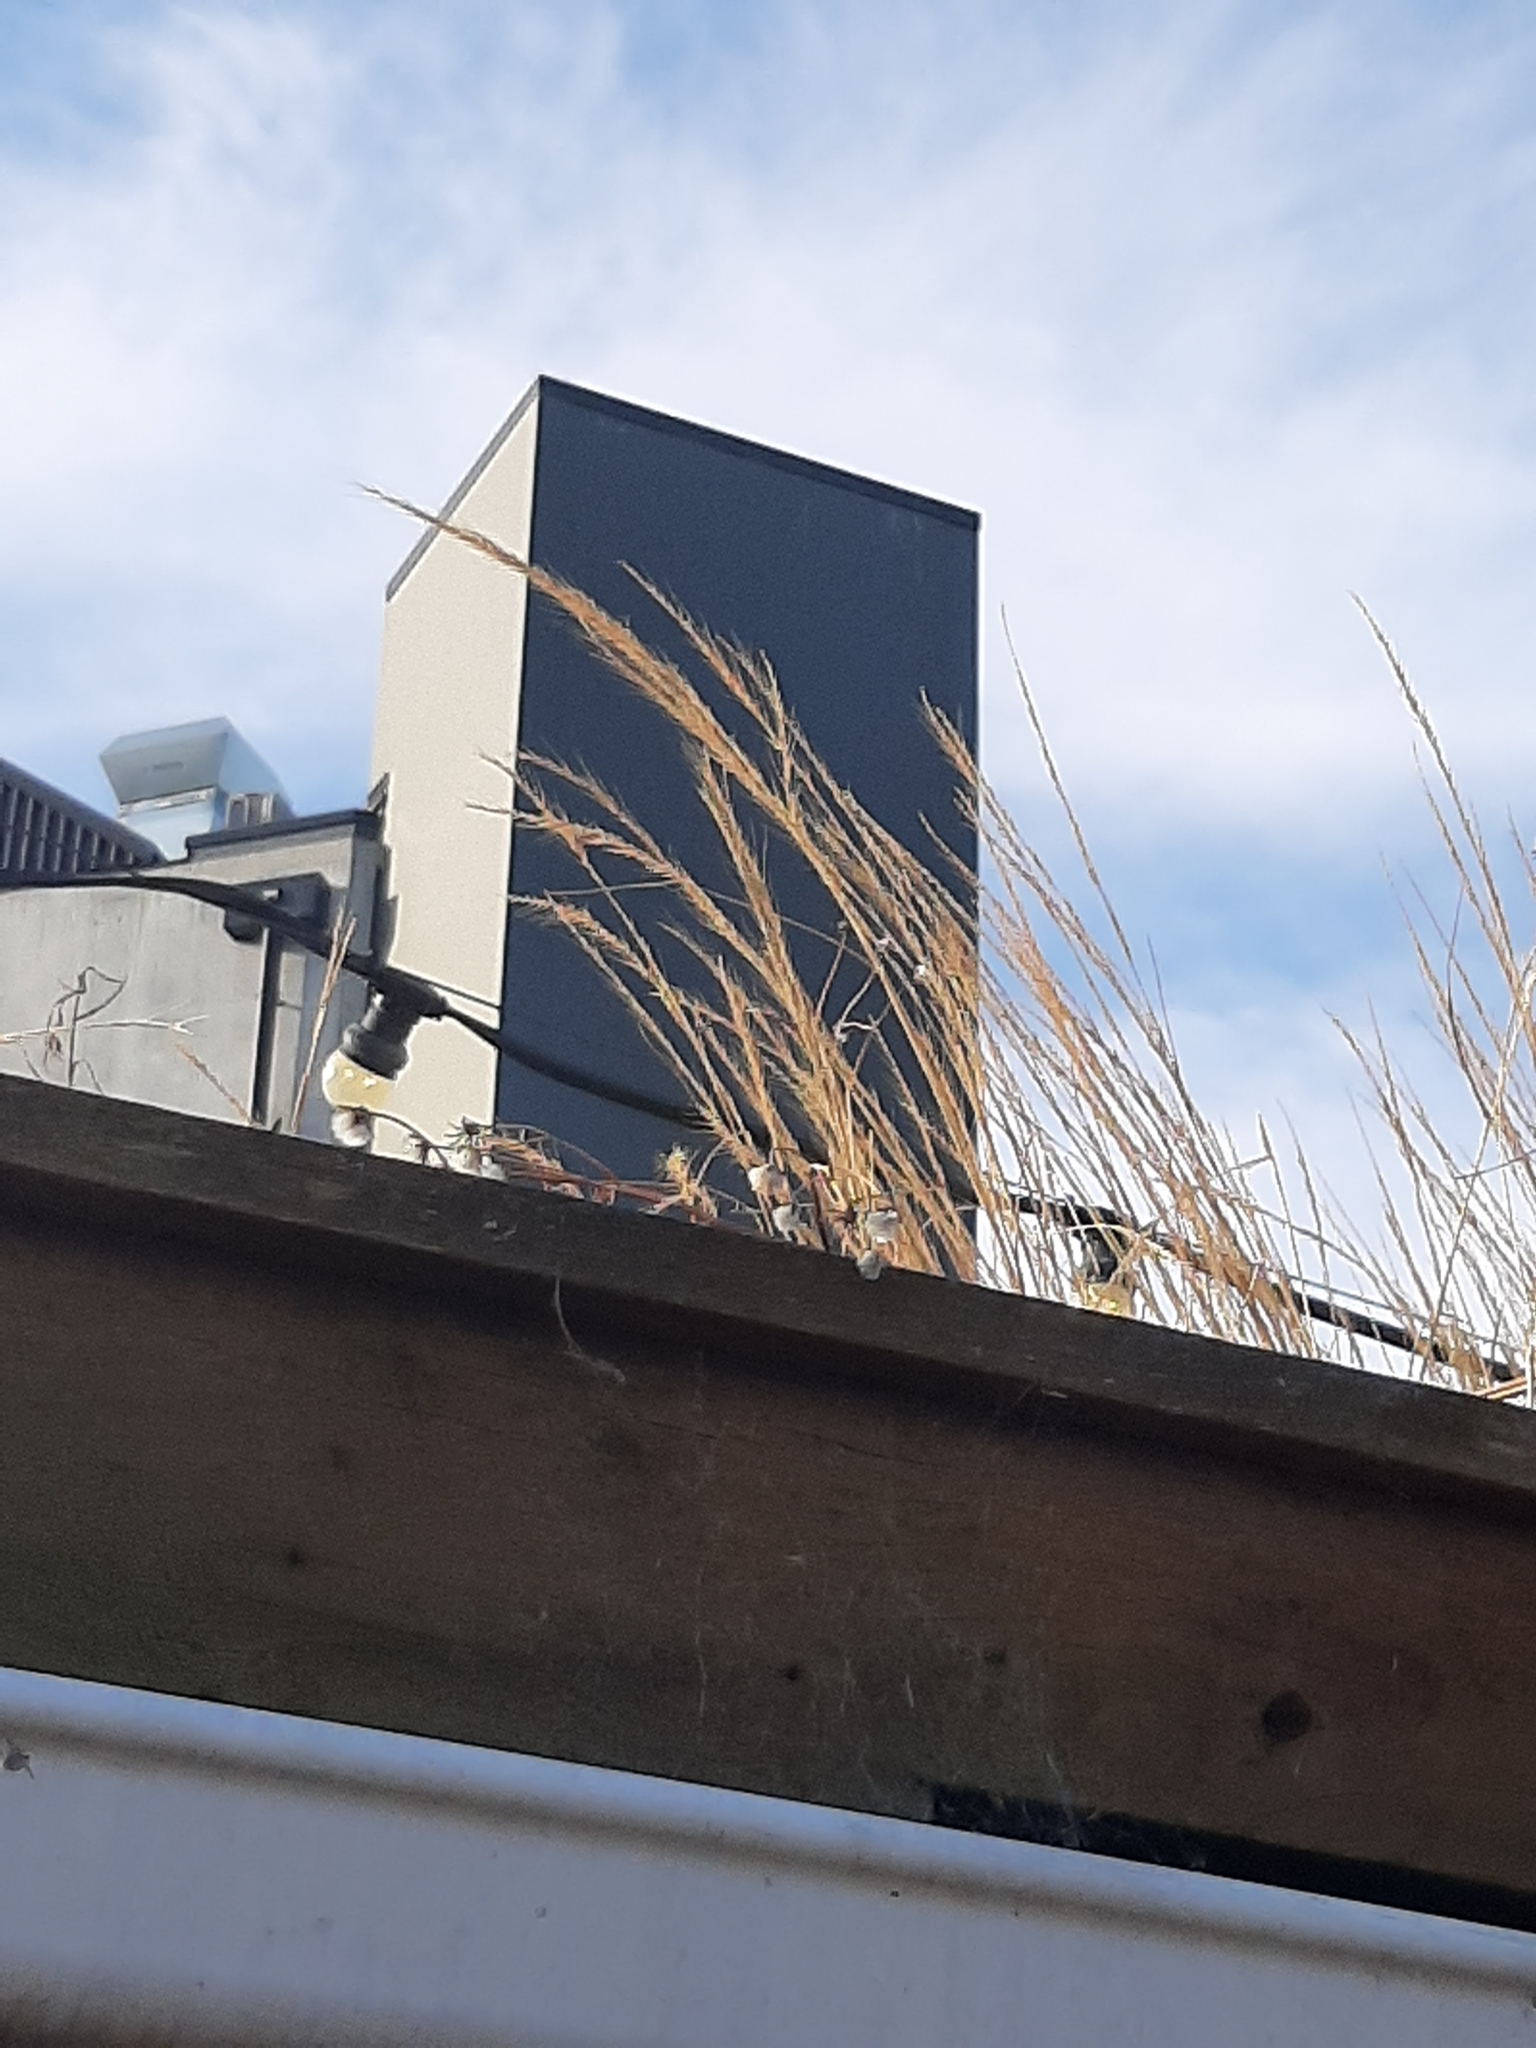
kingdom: Plantae
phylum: Tracheophyta
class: Liliopsida
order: Poales
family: Poaceae
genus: Festuca
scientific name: Festuca myuros
